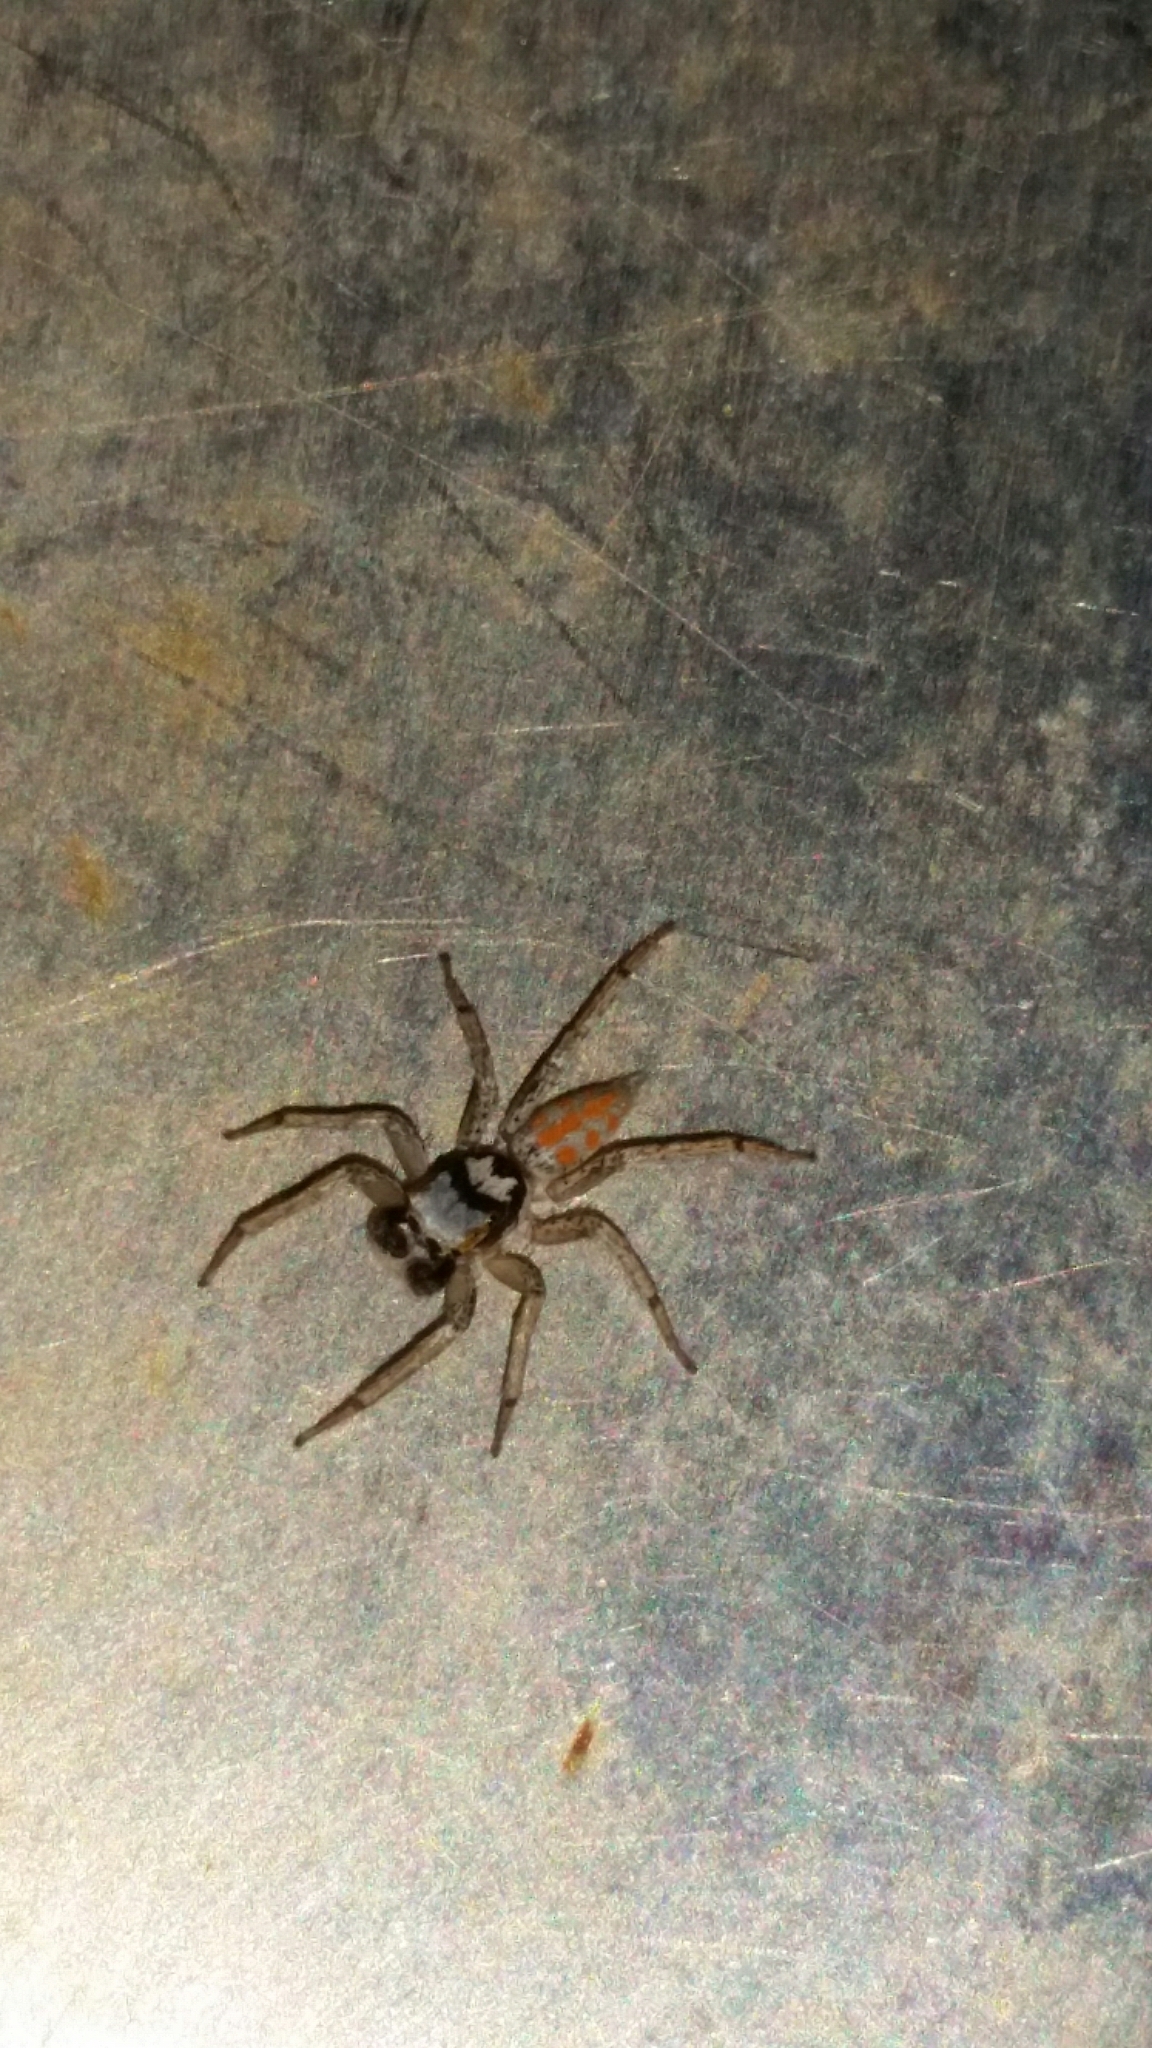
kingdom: Animalia
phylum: Arthropoda
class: Arachnida
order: Araneae
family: Salticidae
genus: Paramaevia
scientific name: Paramaevia poultoni
